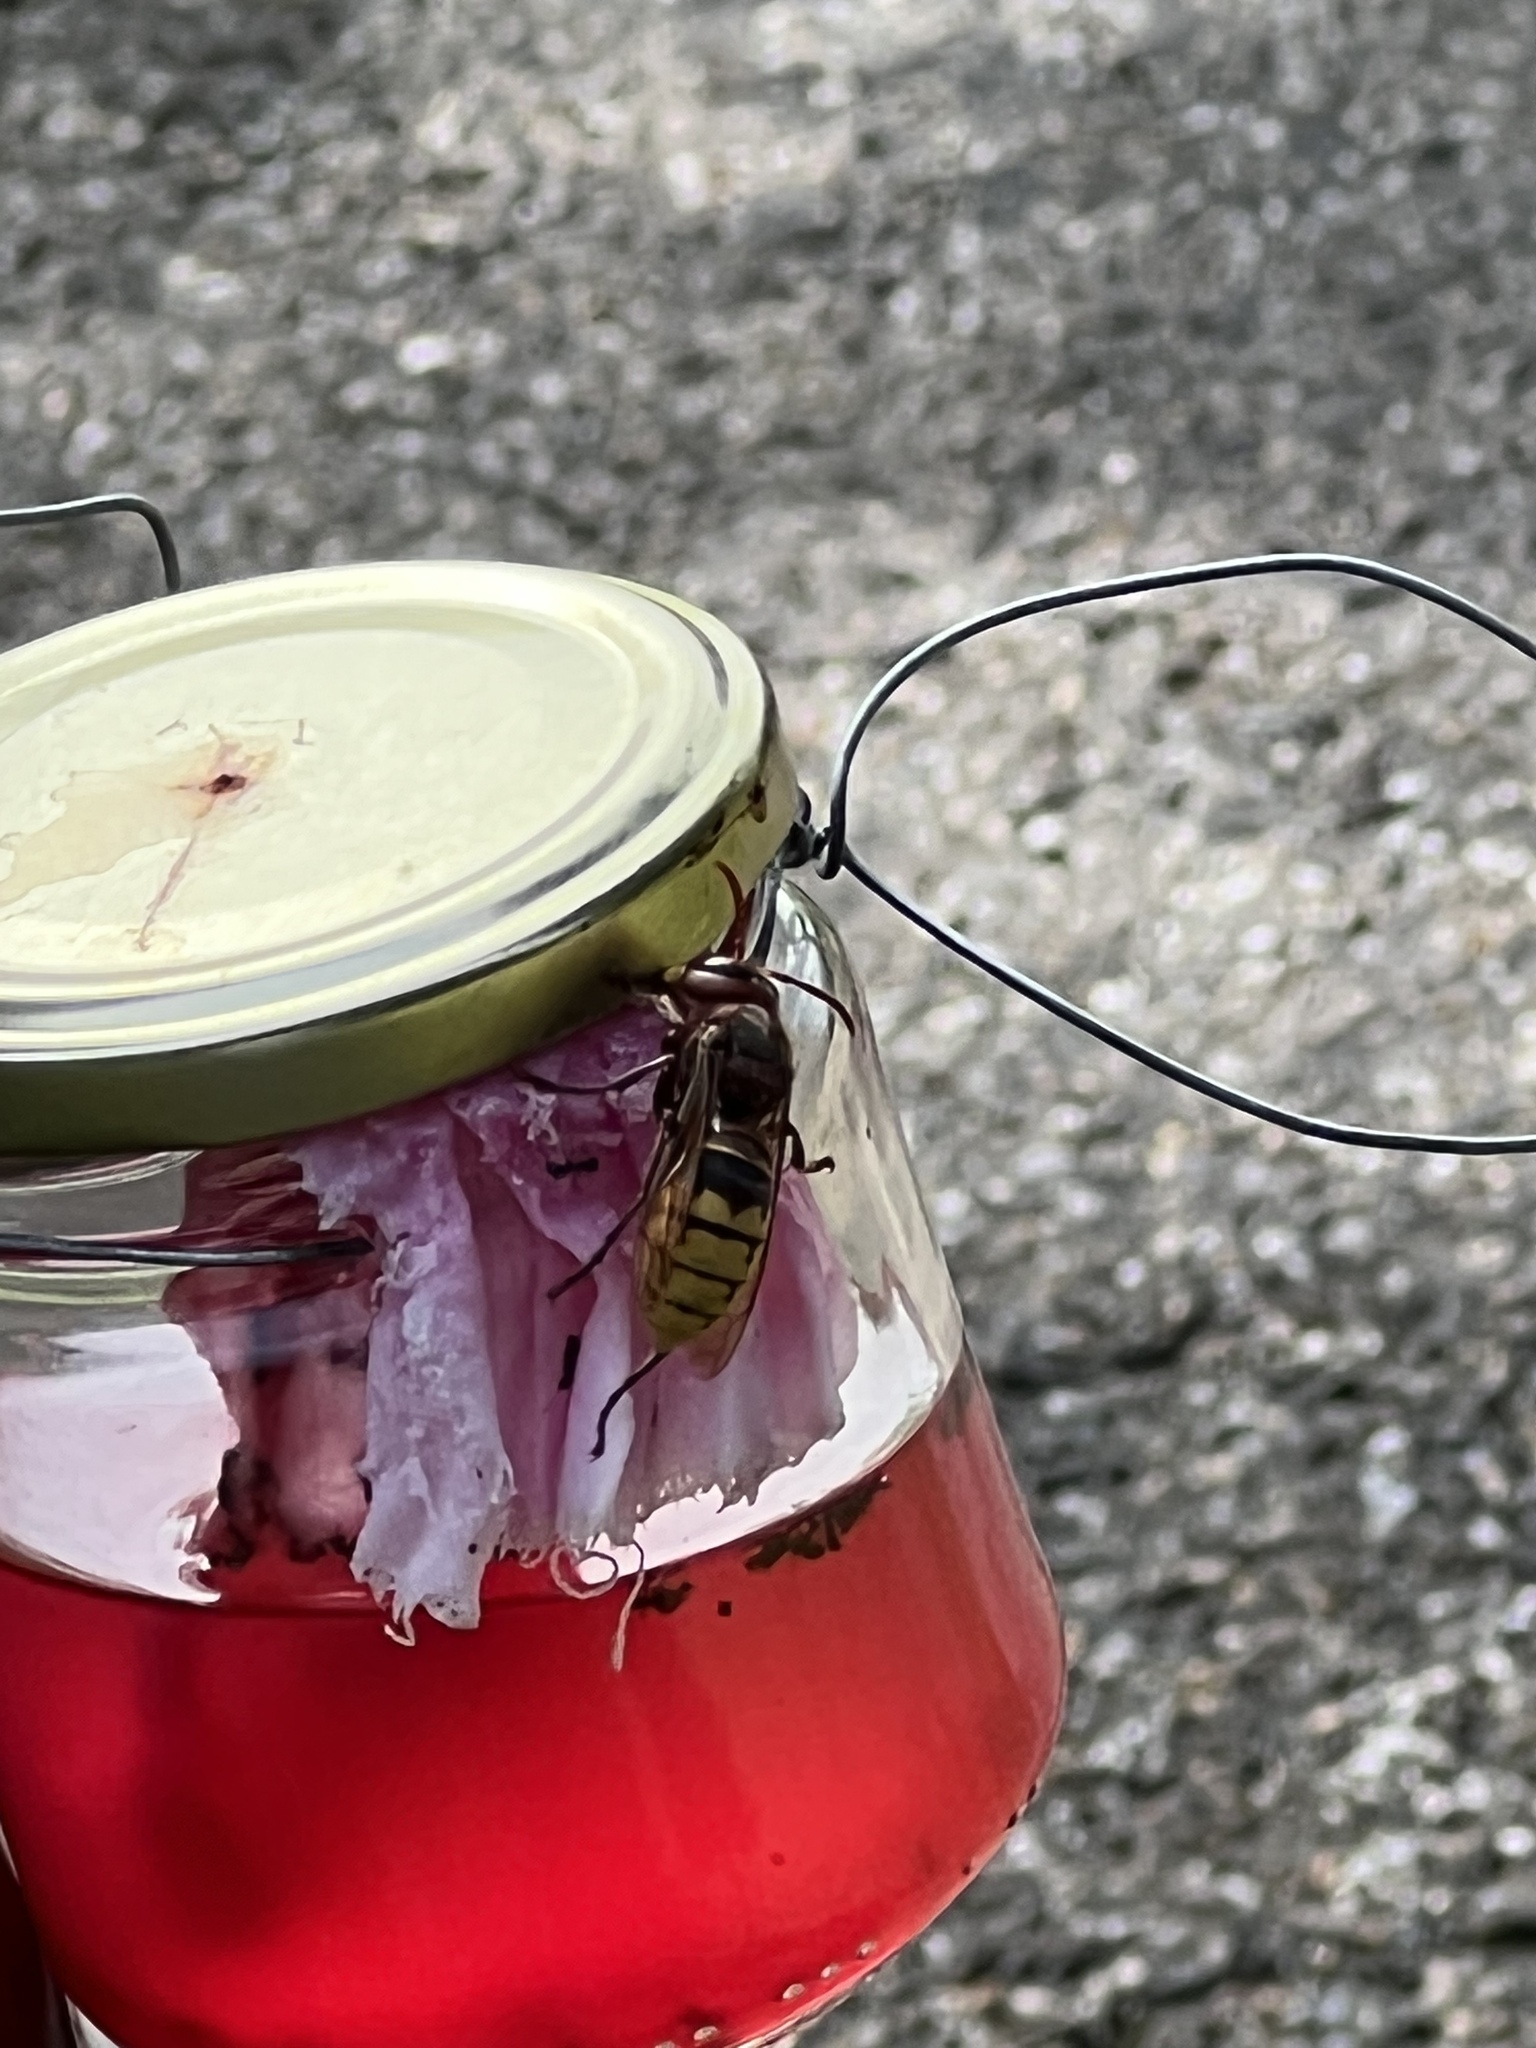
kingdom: Animalia
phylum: Arthropoda
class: Insecta
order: Hymenoptera
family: Vespidae
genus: Vespa
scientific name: Vespa crabro
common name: Hornet
